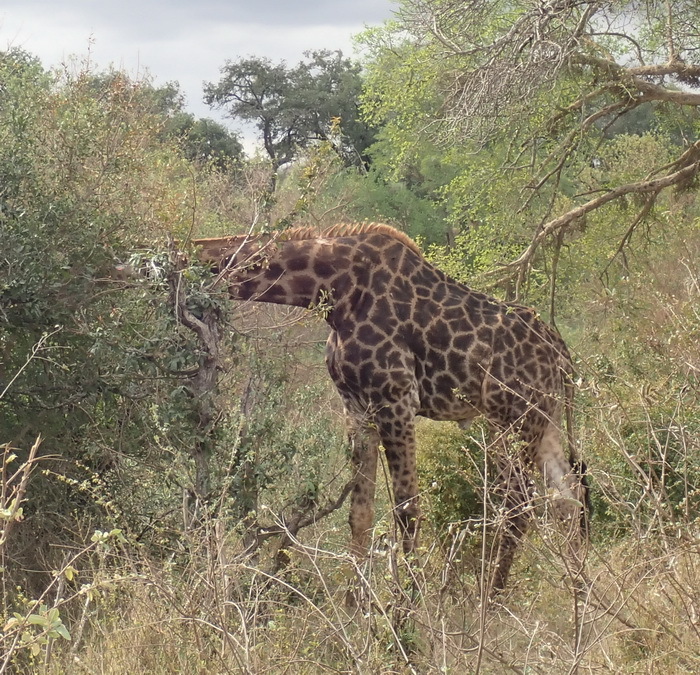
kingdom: Animalia
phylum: Chordata
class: Mammalia
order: Artiodactyla
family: Giraffidae
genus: Giraffa
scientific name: Giraffa giraffa
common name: Southern giraffe
